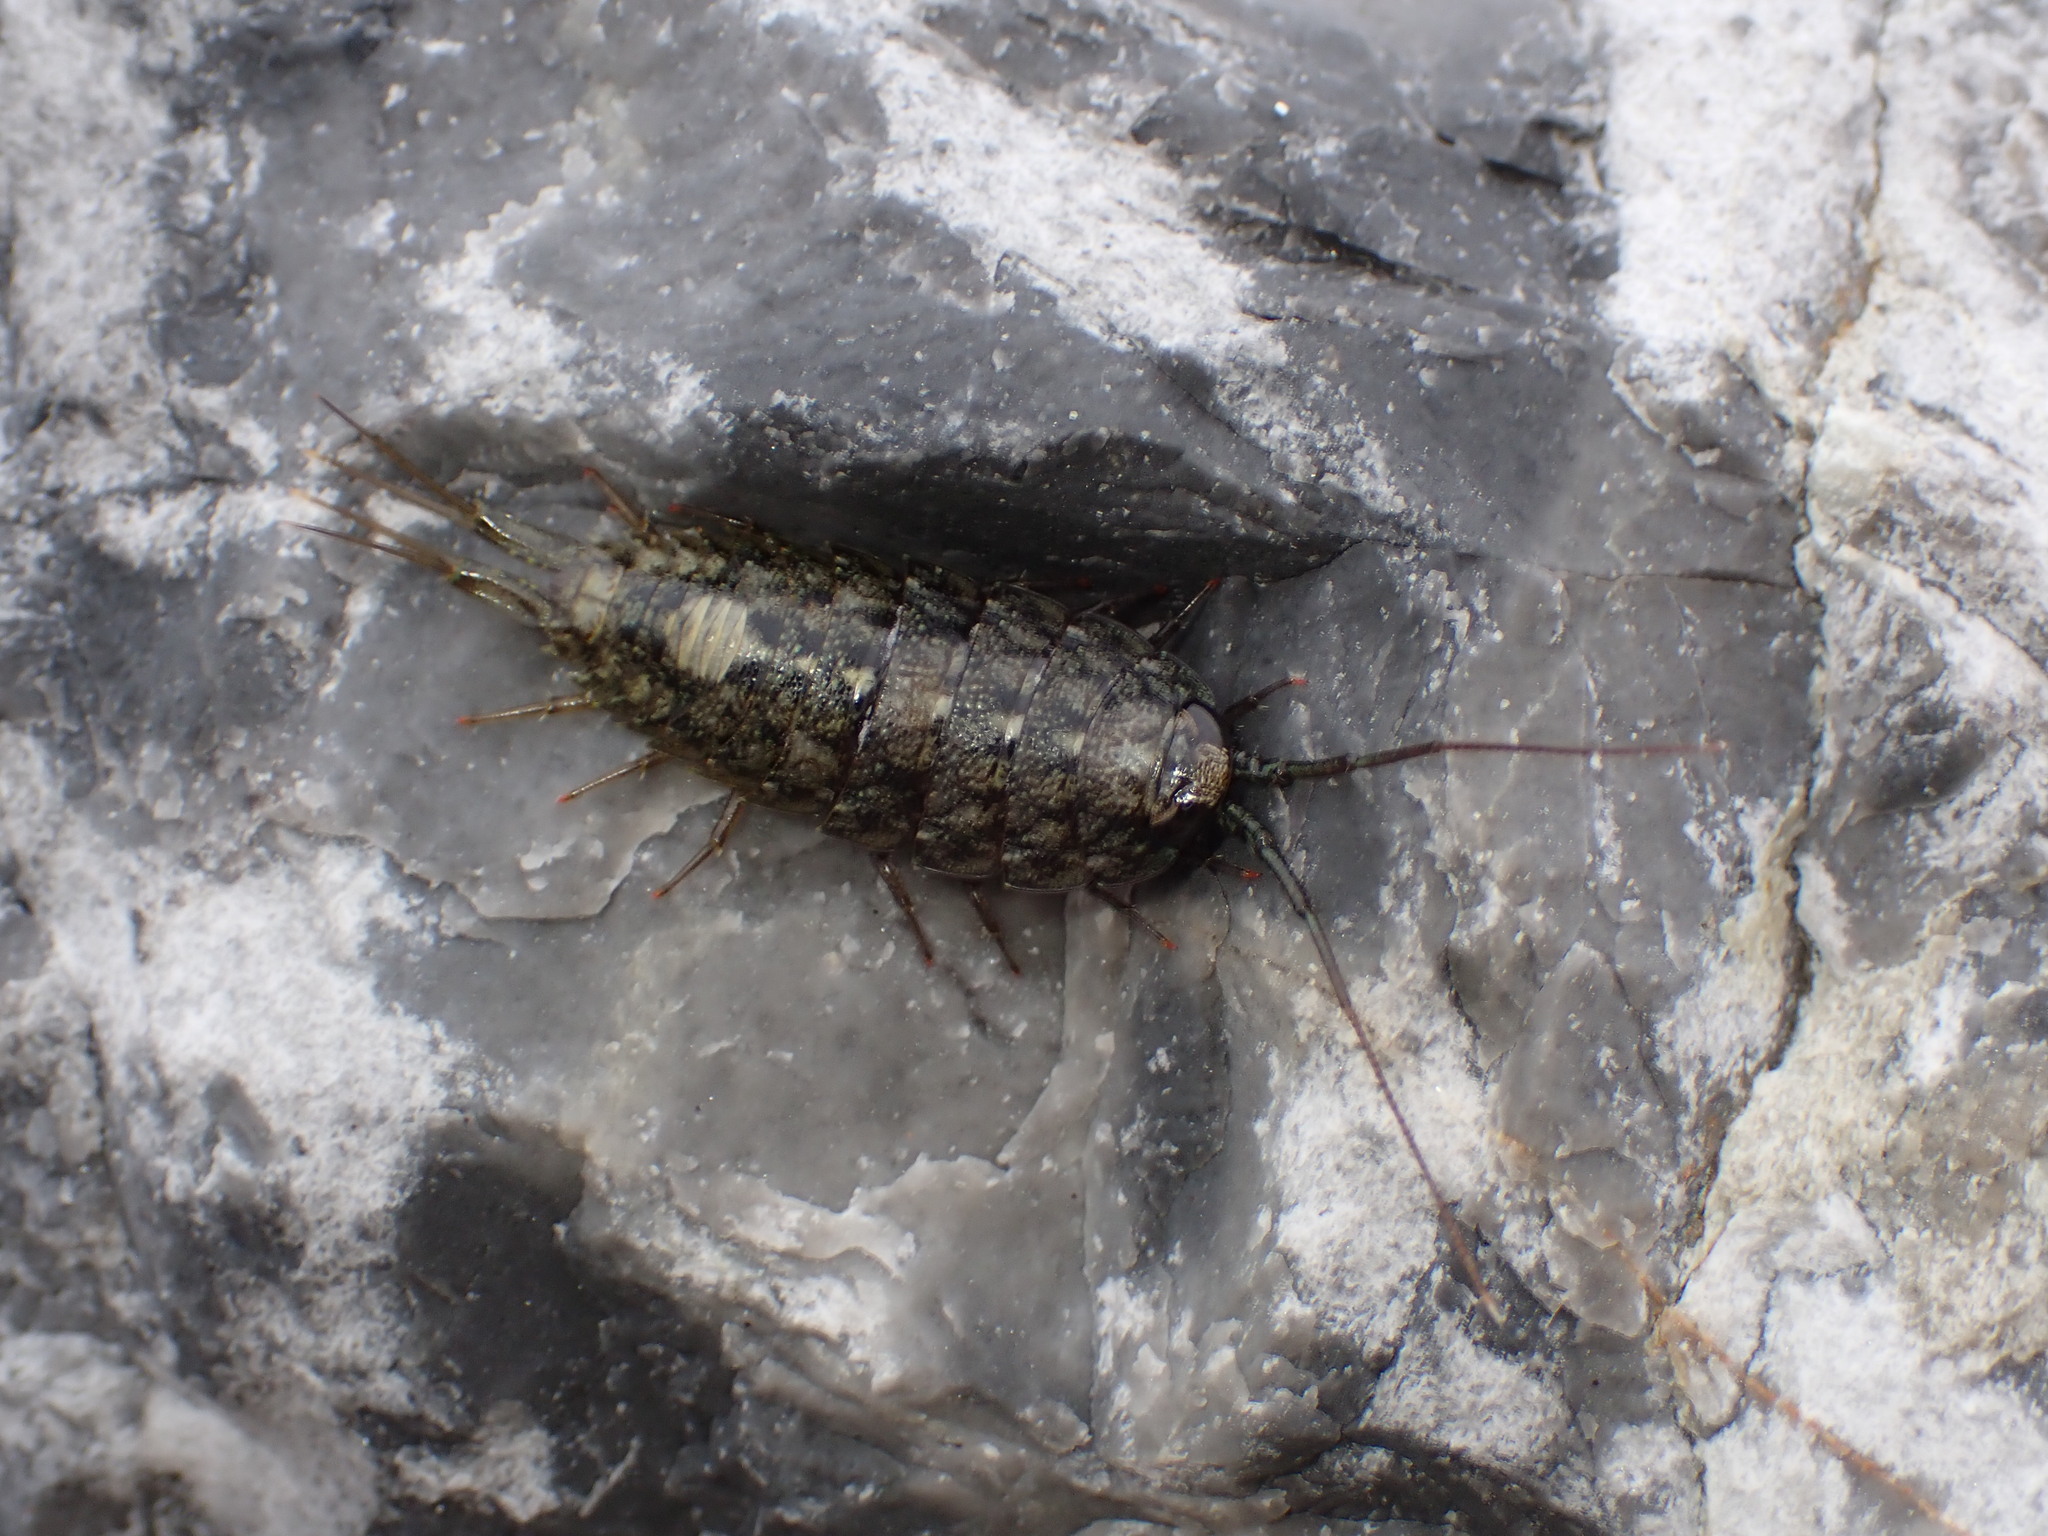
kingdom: Animalia
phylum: Arthropoda
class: Malacostraca
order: Isopoda
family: Ligiidae
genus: Ligia
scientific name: Ligia occidentalis
